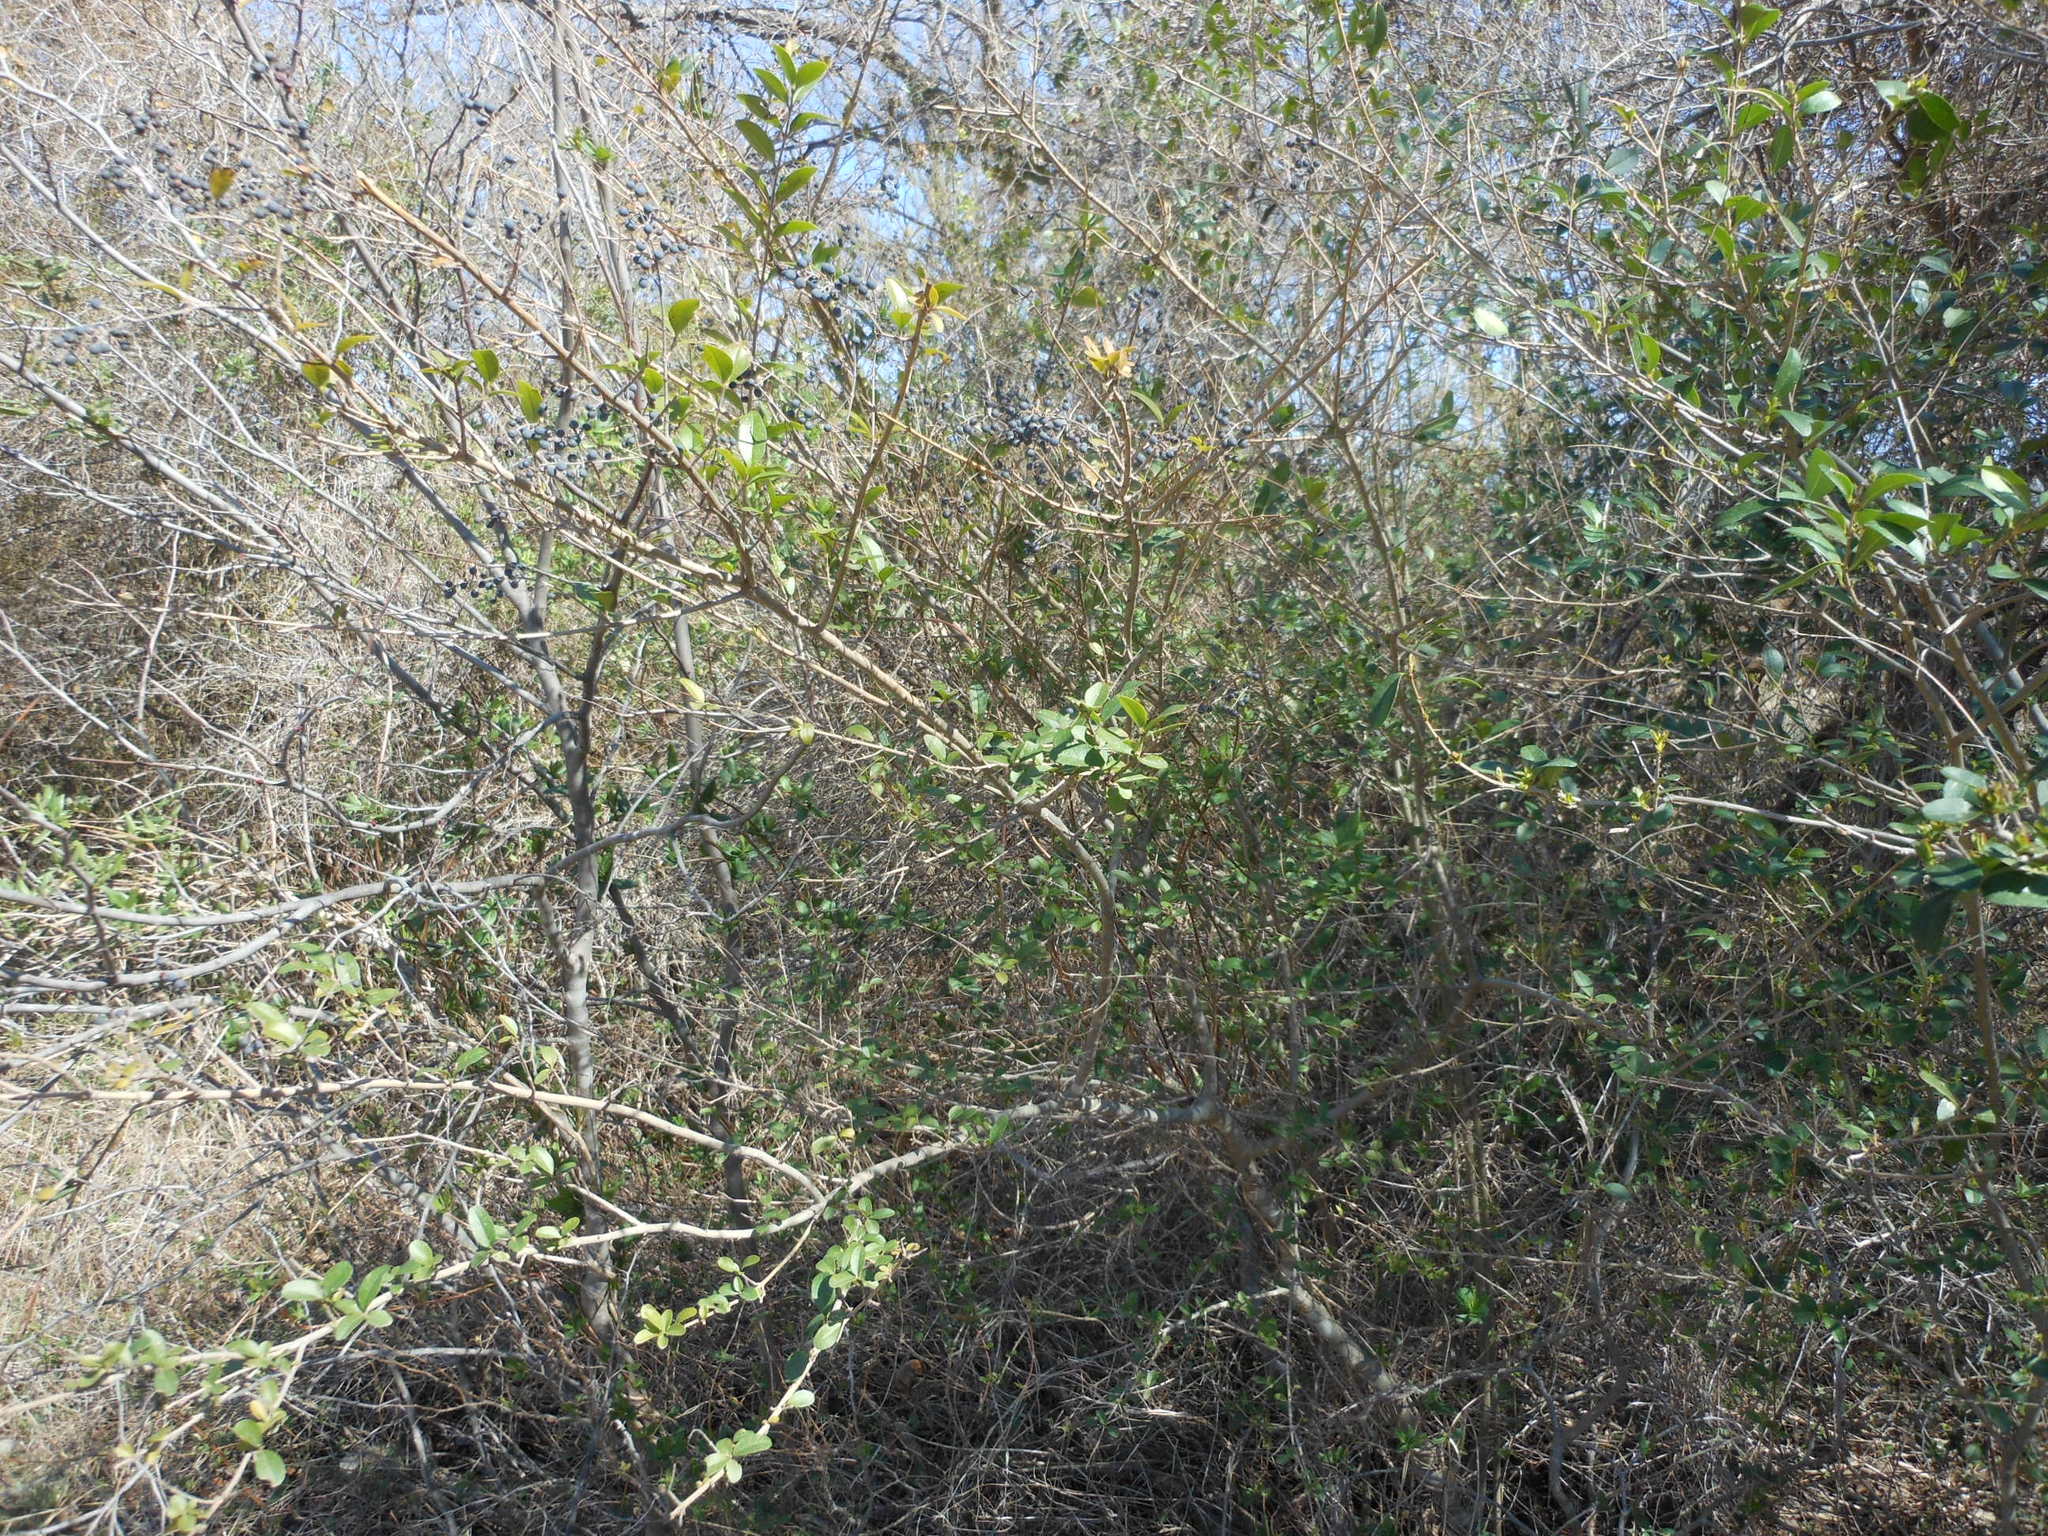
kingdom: Plantae
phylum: Tracheophyta
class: Magnoliopsida
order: Lamiales
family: Oleaceae
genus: Ligustrum
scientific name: Ligustrum sinense
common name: Chinese privet
